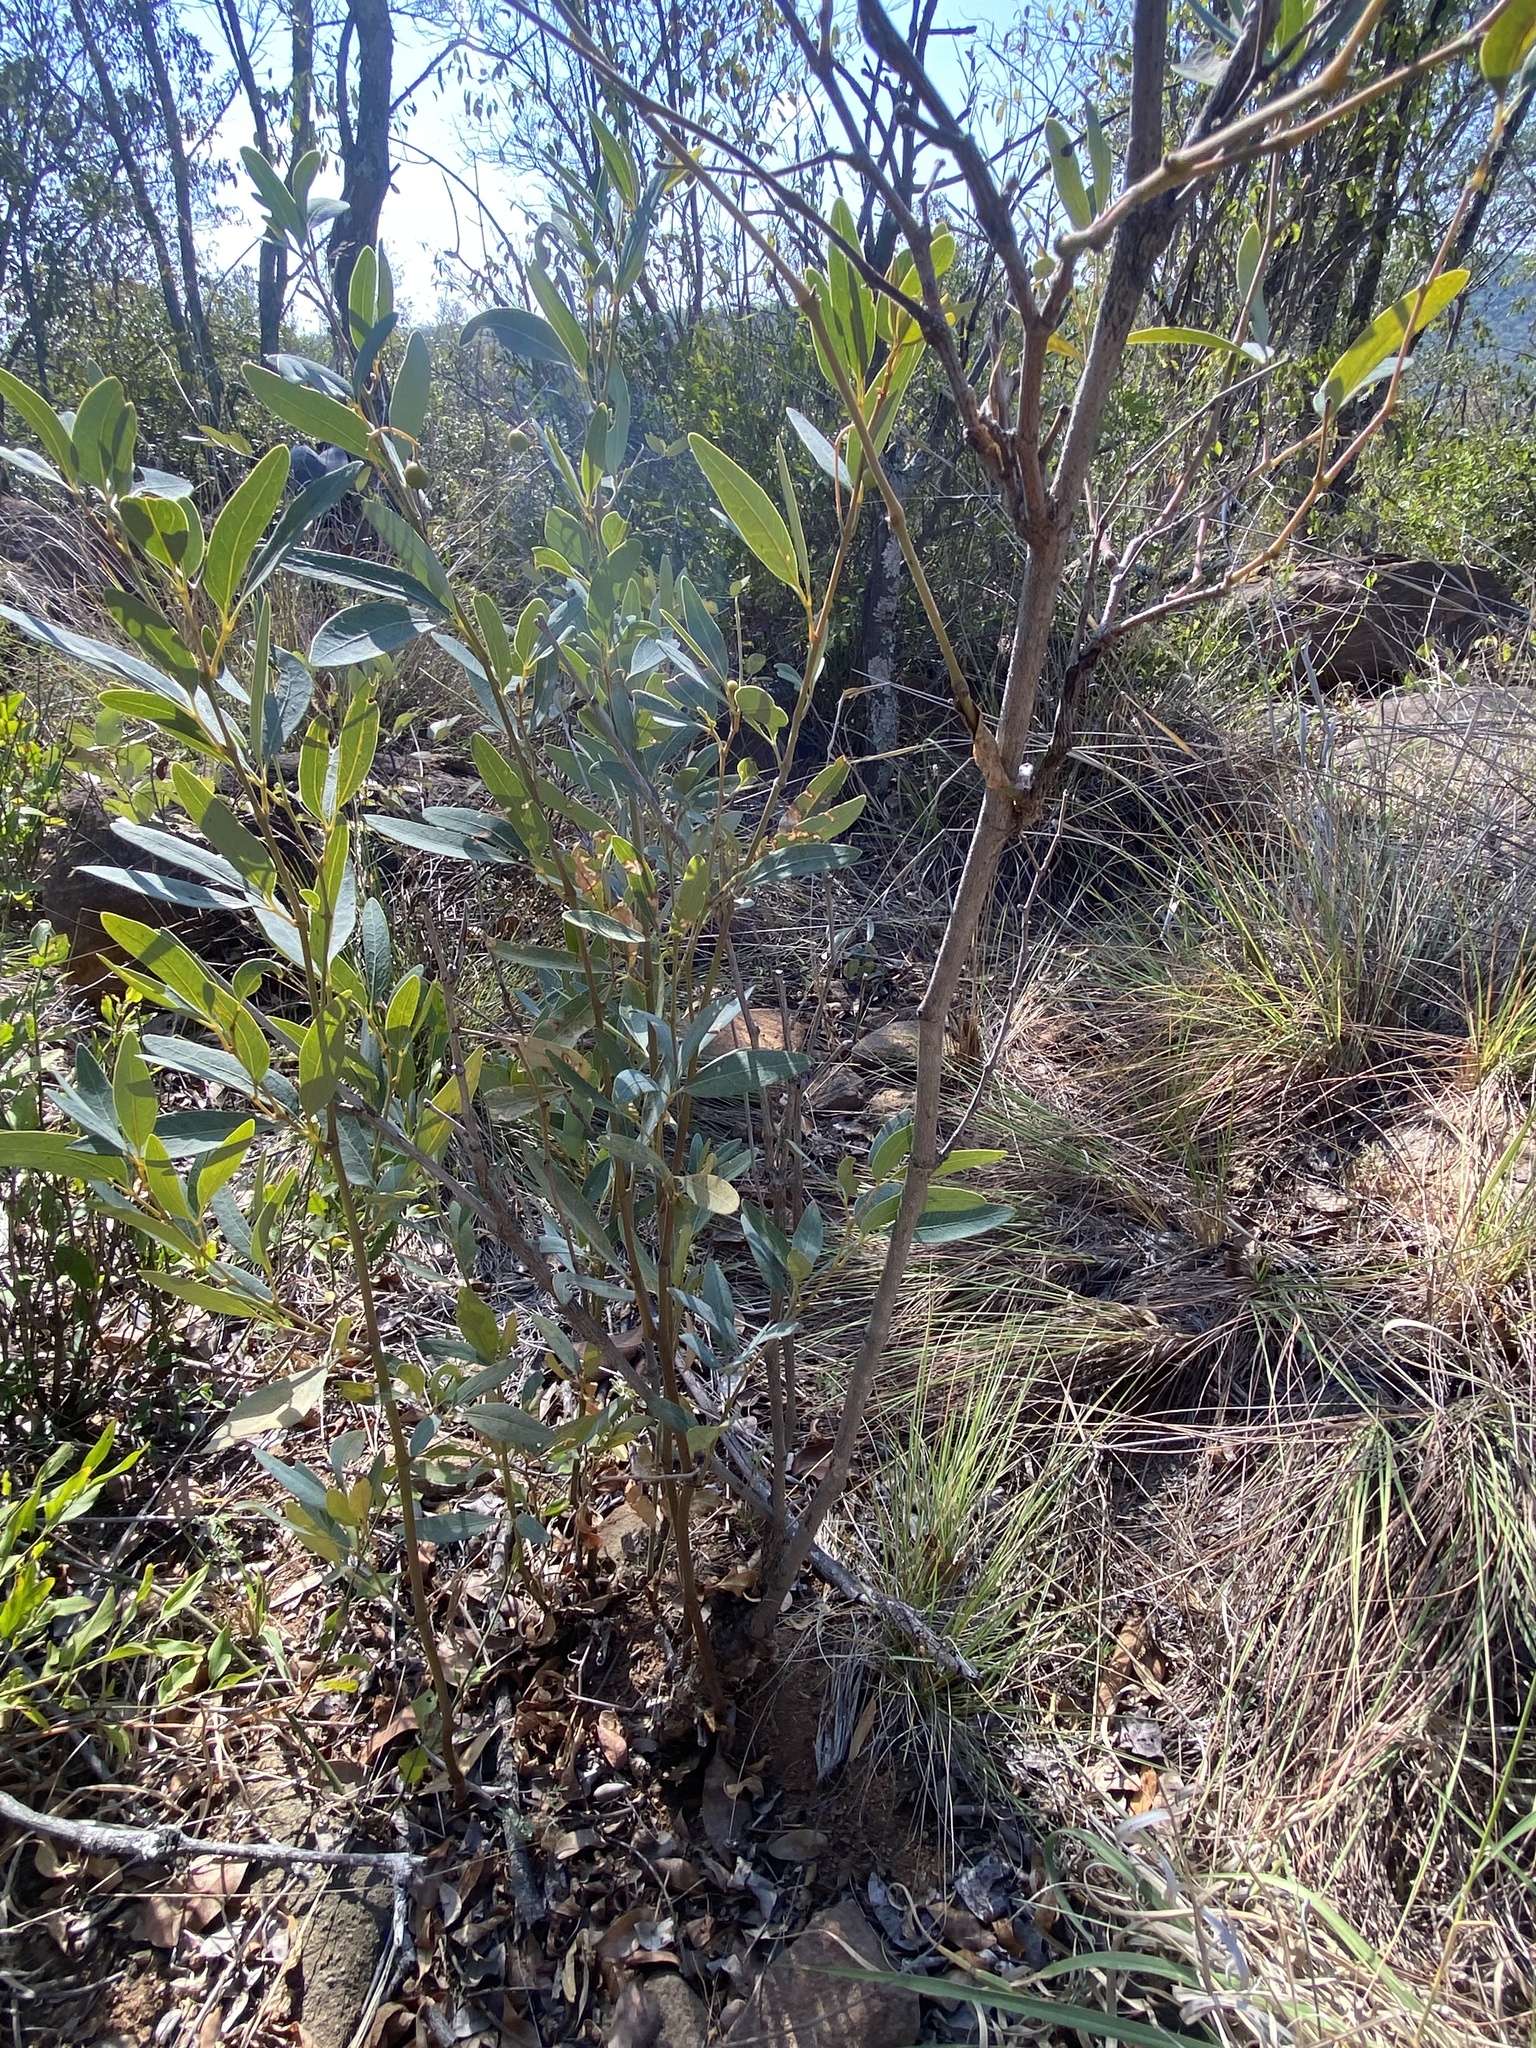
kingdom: Plantae
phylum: Tracheophyta
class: Magnoliopsida
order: Vitales
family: Vitaceae
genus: Rhoicissus
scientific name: Rhoicissus revoilii
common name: Bushveld grape
